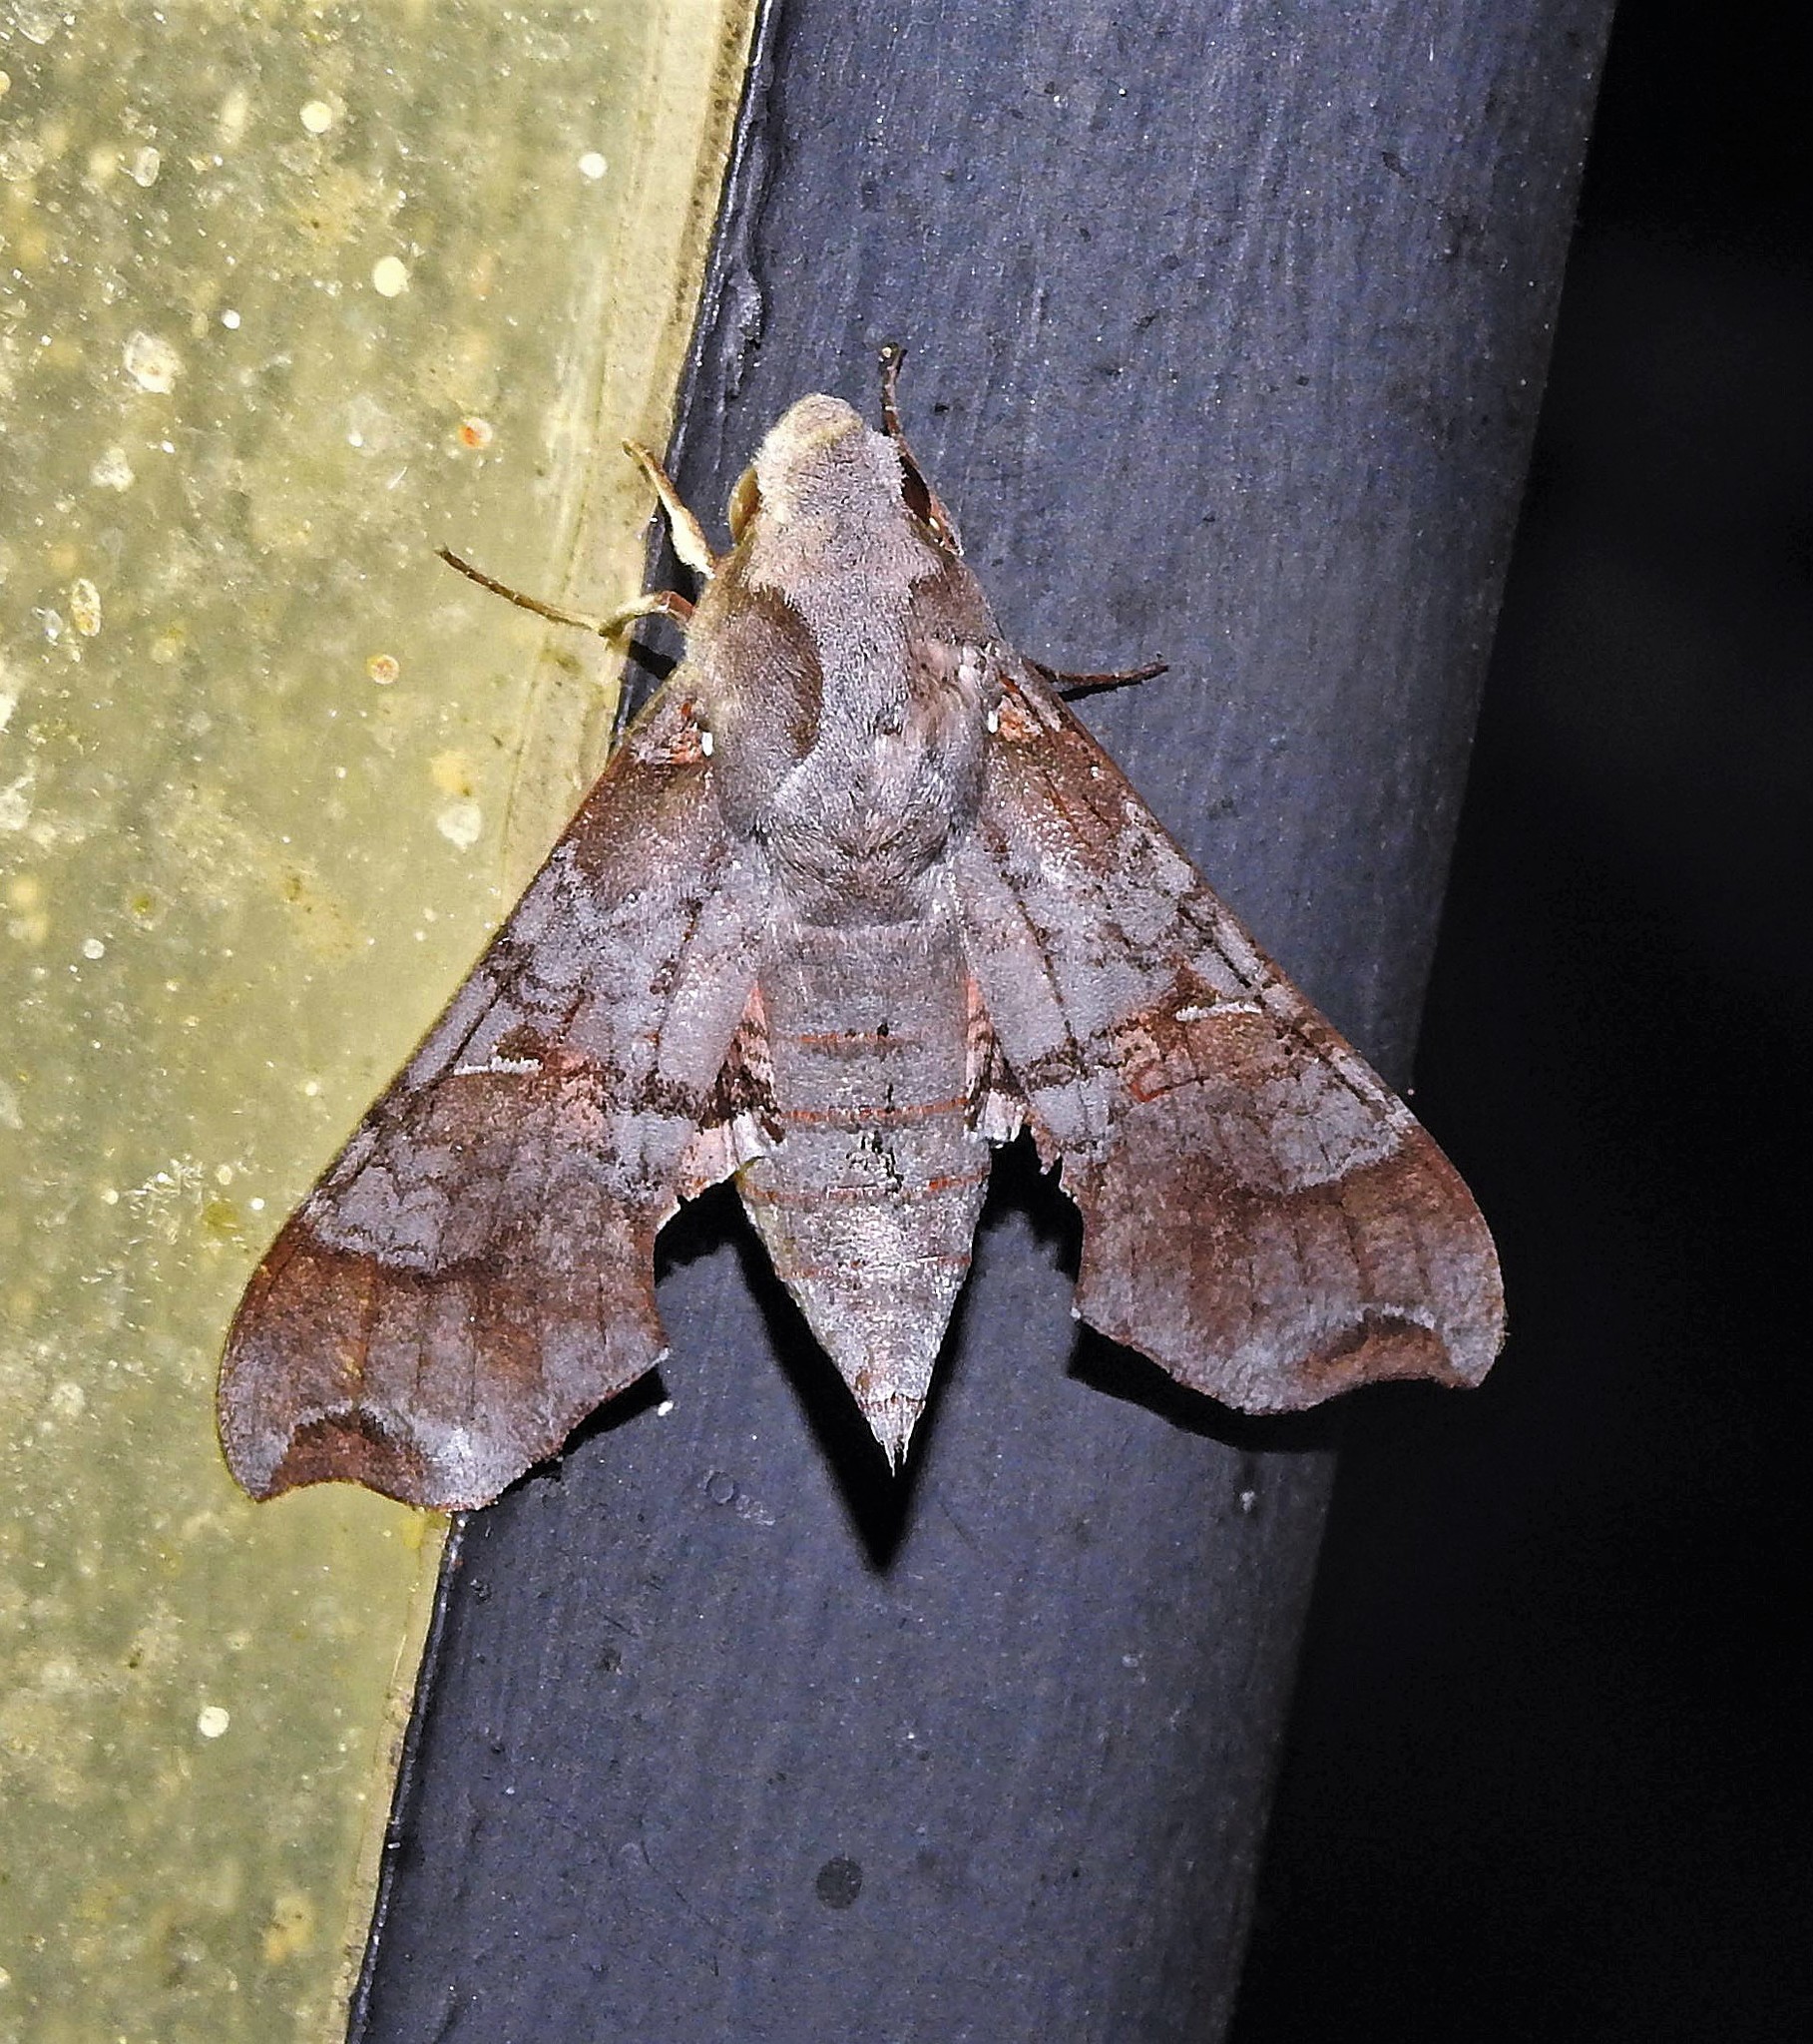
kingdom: Animalia
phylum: Arthropoda
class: Insecta
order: Lepidoptera
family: Sphingidae
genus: Callionima
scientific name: Callionima grisescens
